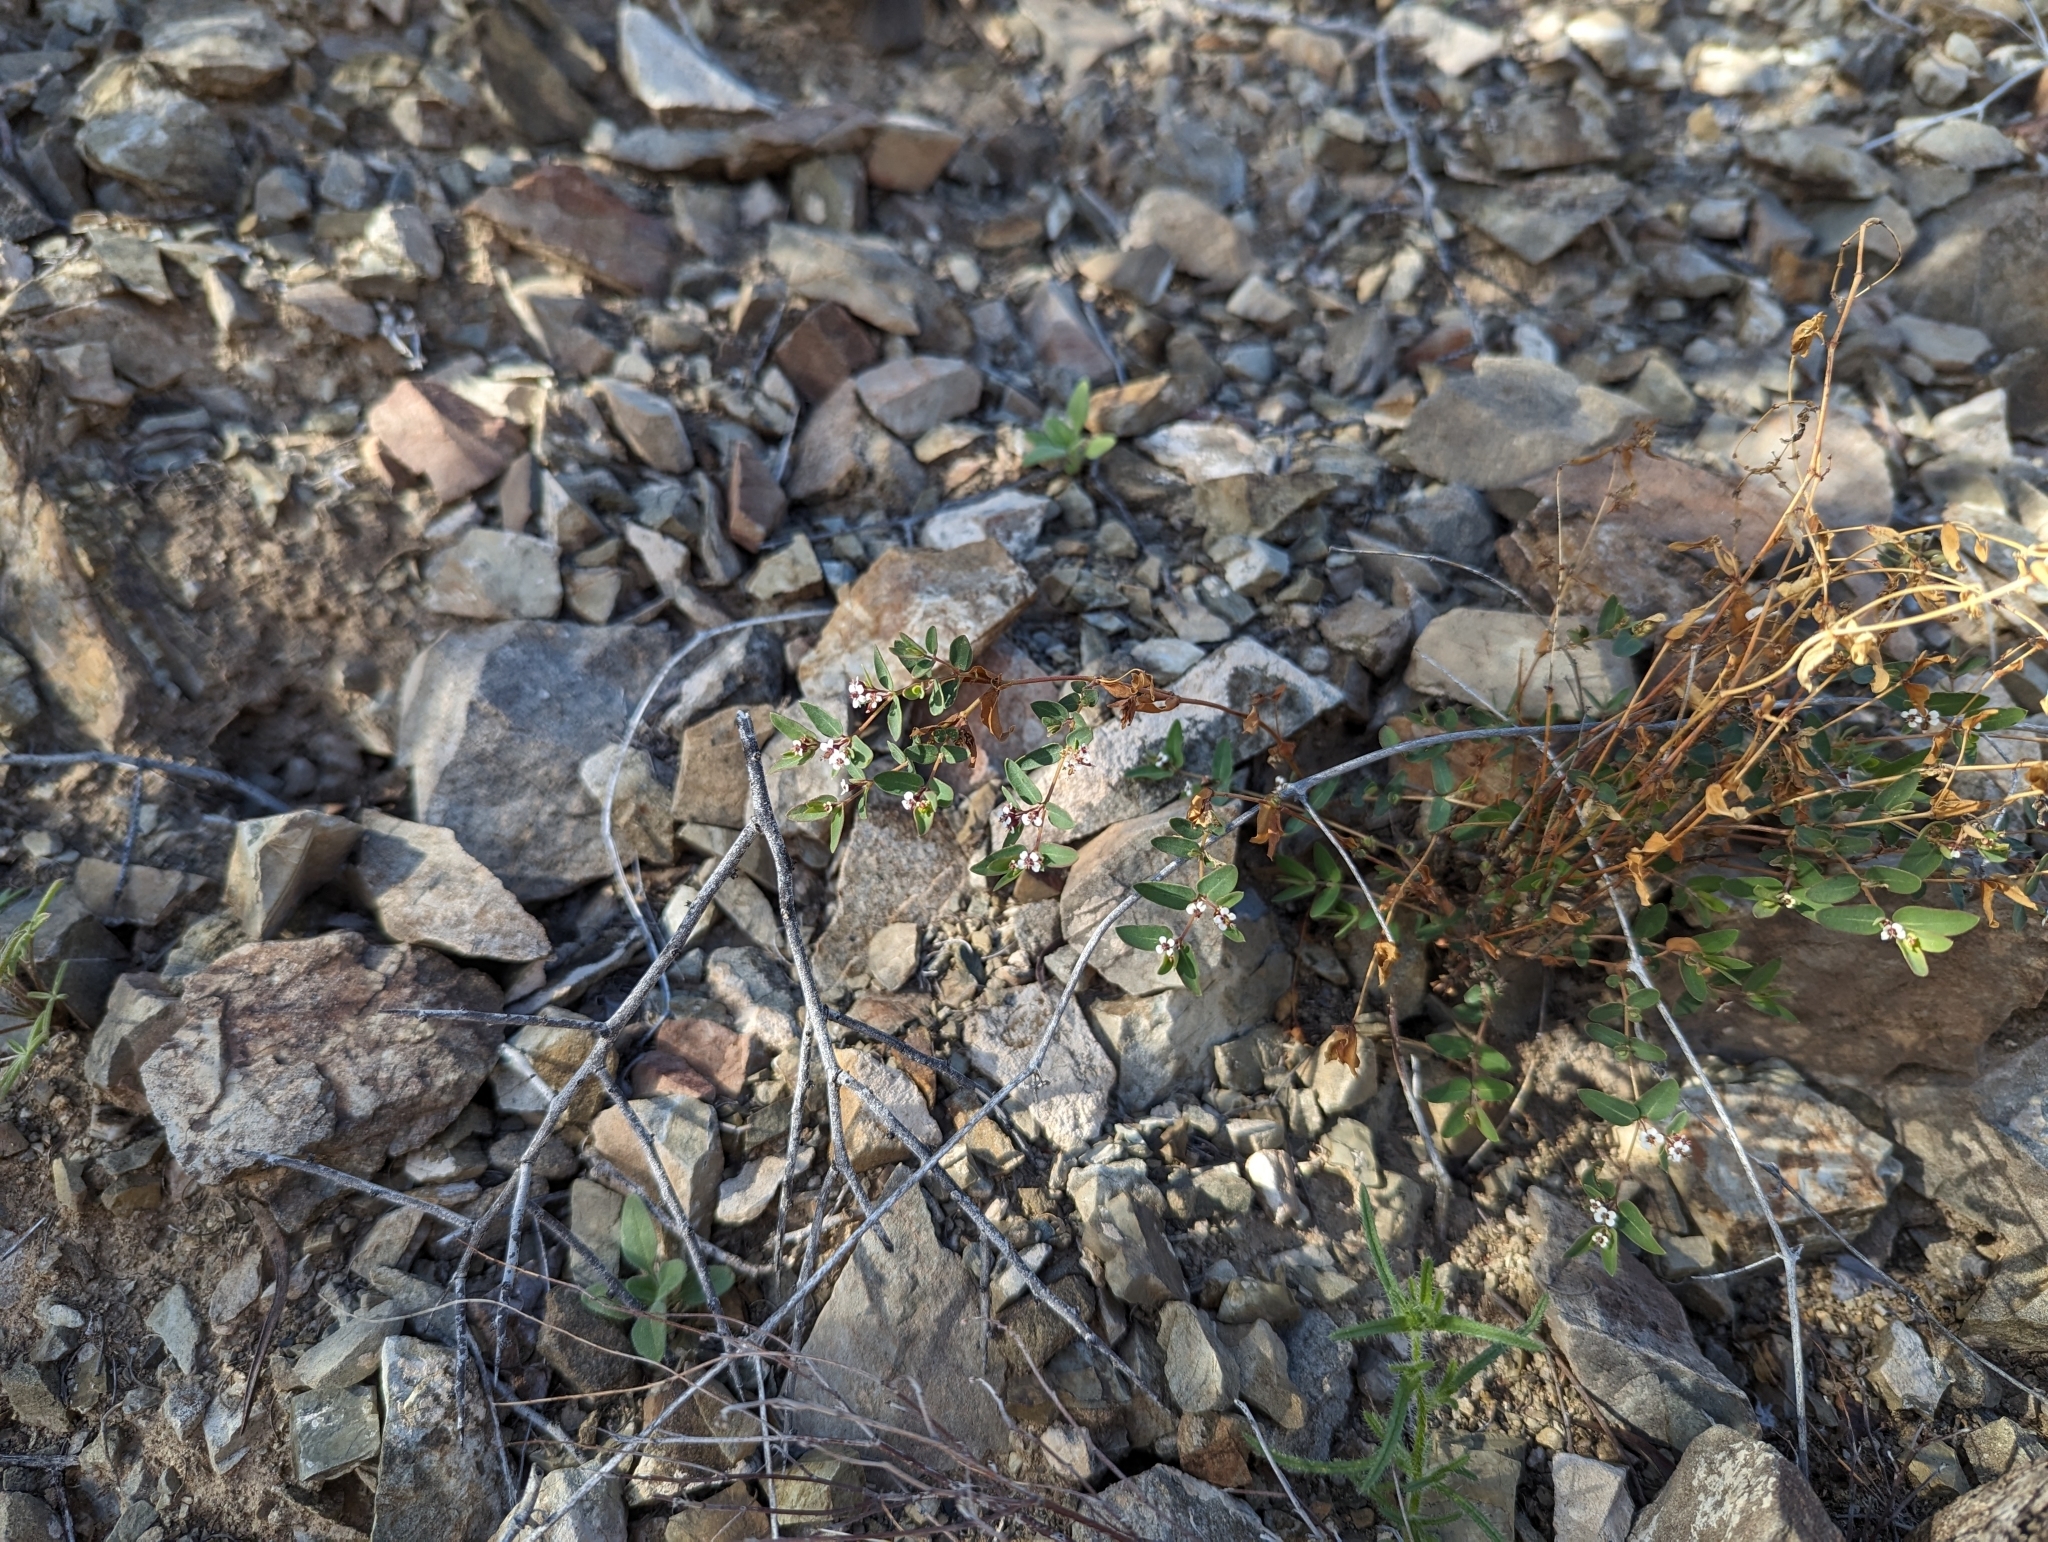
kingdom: Plantae
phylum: Tracheophyta
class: Magnoliopsida
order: Malpighiales
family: Euphorbiaceae
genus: Euphorbia
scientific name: Euphorbia capitellata
